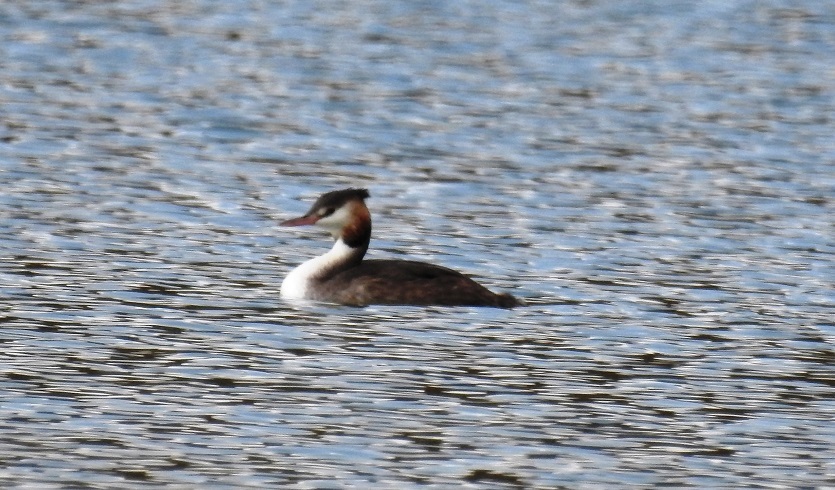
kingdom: Animalia
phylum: Chordata
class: Aves
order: Podicipediformes
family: Podicipedidae
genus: Podiceps
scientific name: Podiceps cristatus
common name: Great crested grebe
